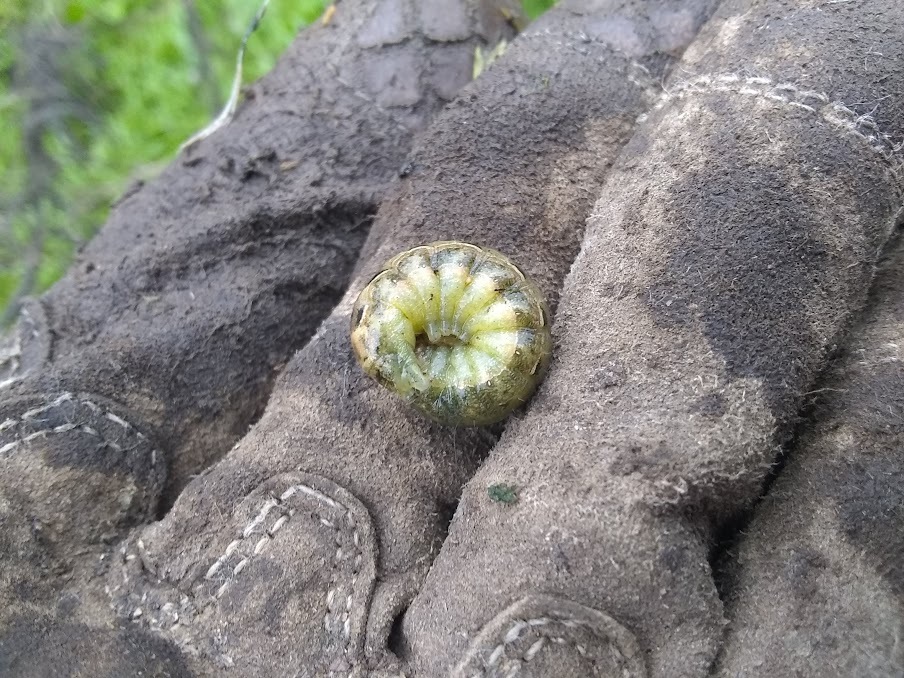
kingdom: Animalia
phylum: Arthropoda
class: Insecta
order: Lepidoptera
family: Noctuidae
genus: Noctua
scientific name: Noctua pronuba
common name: Large yellow underwing
